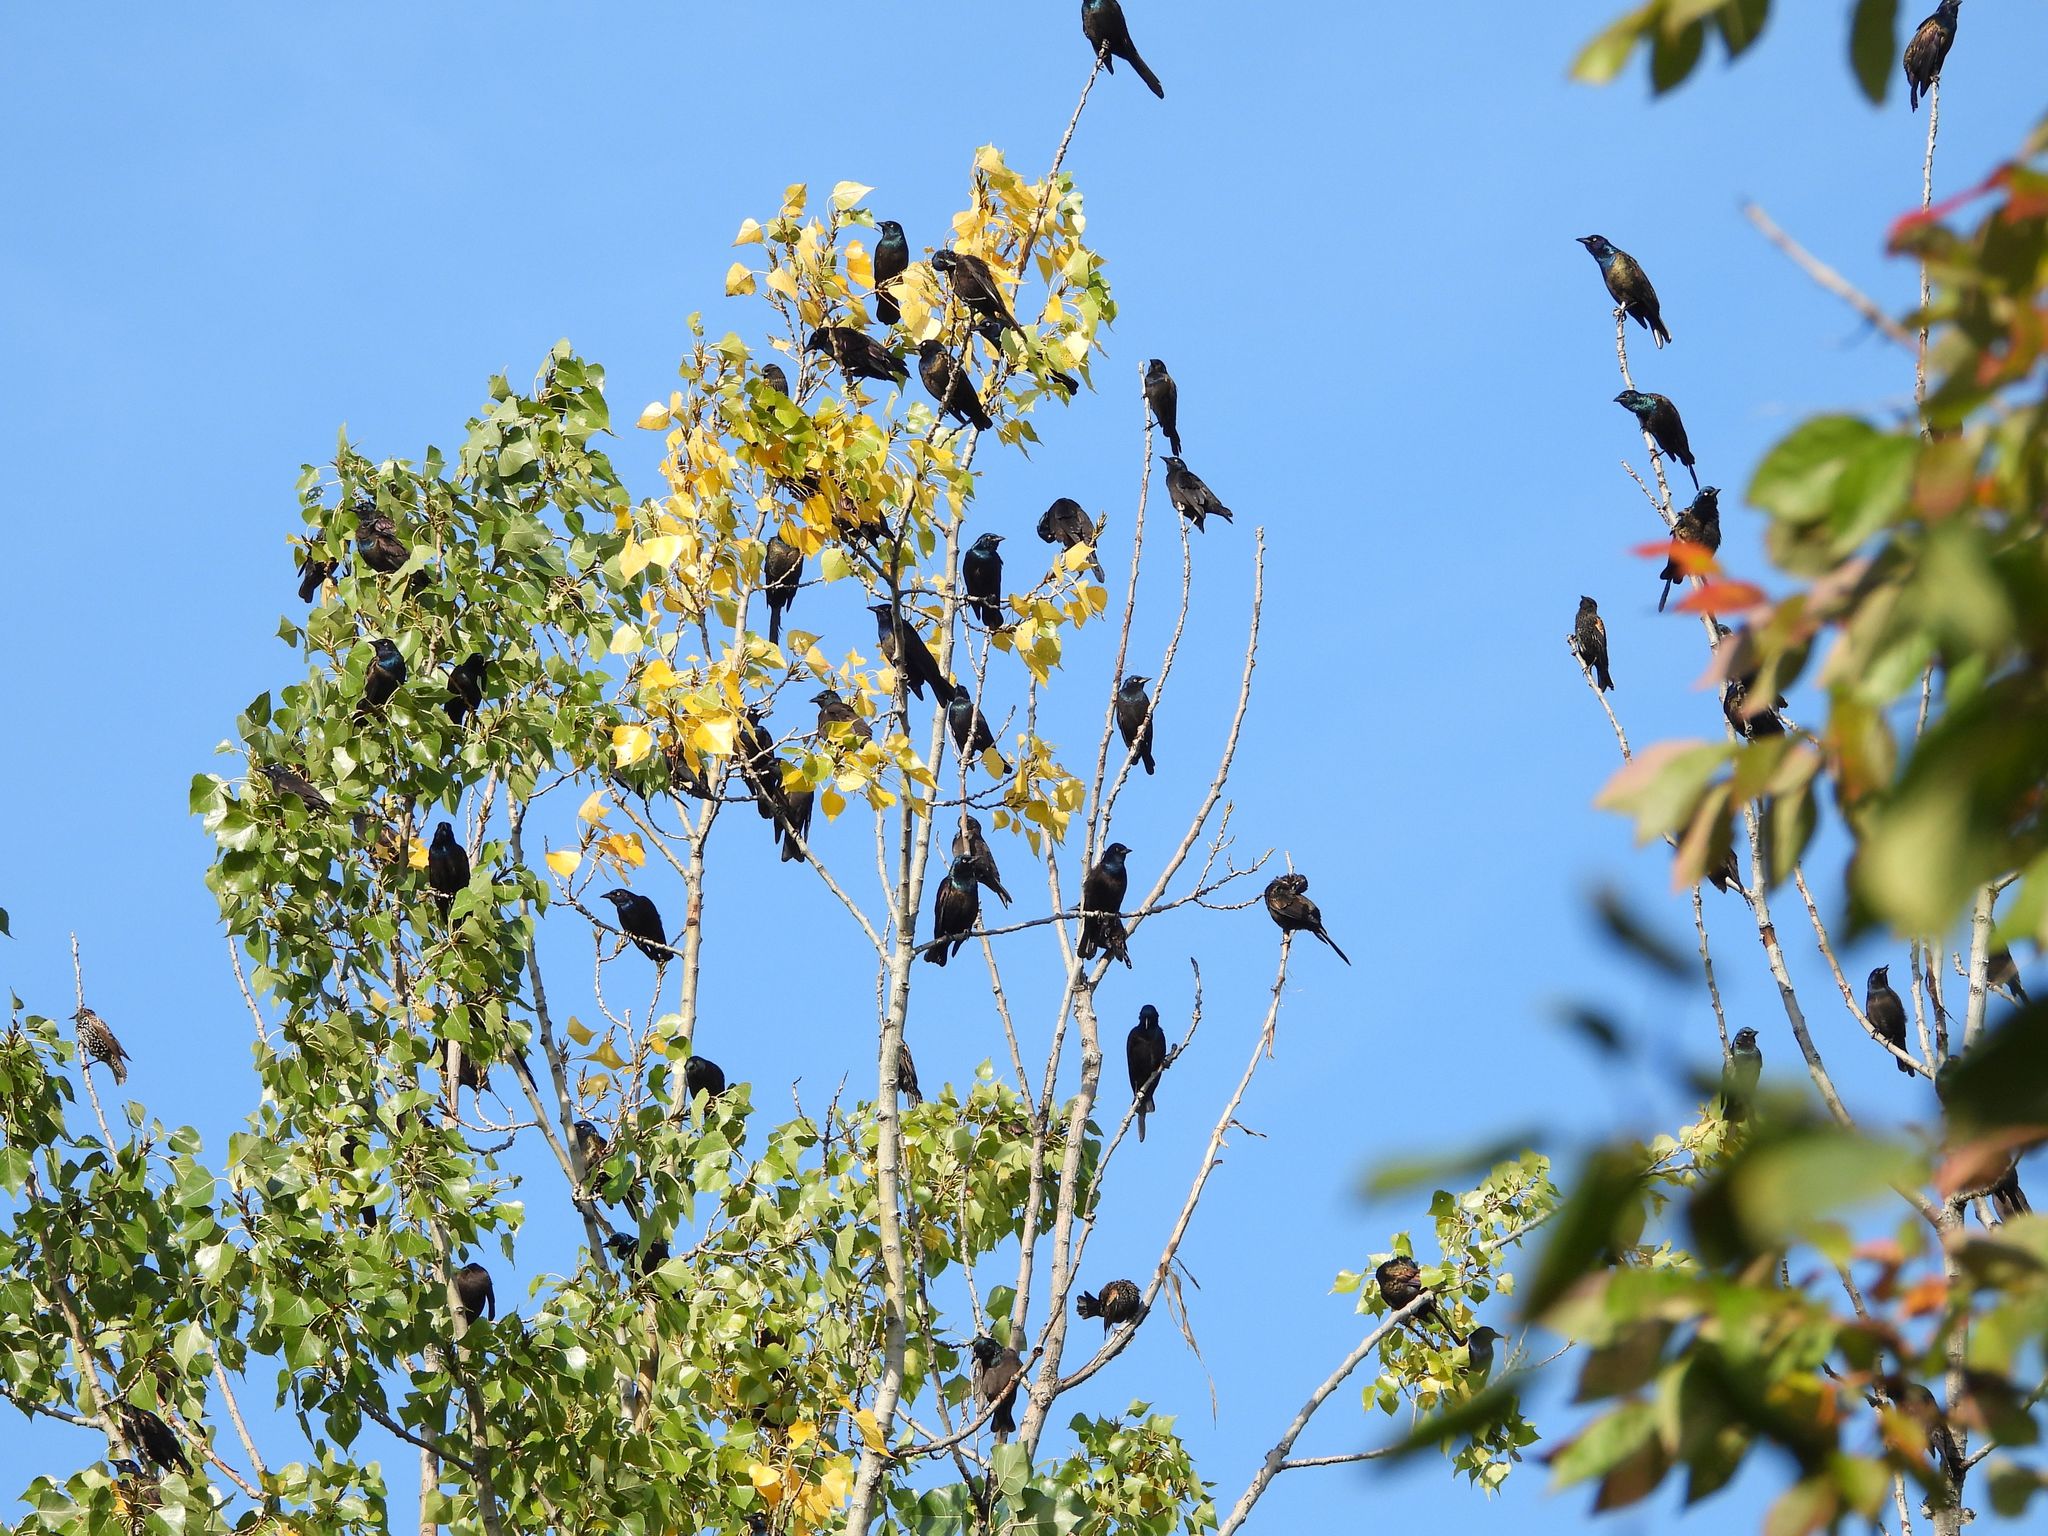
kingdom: Animalia
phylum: Chordata
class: Aves
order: Passeriformes
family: Icteridae
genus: Quiscalus
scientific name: Quiscalus quiscula
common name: Common grackle
